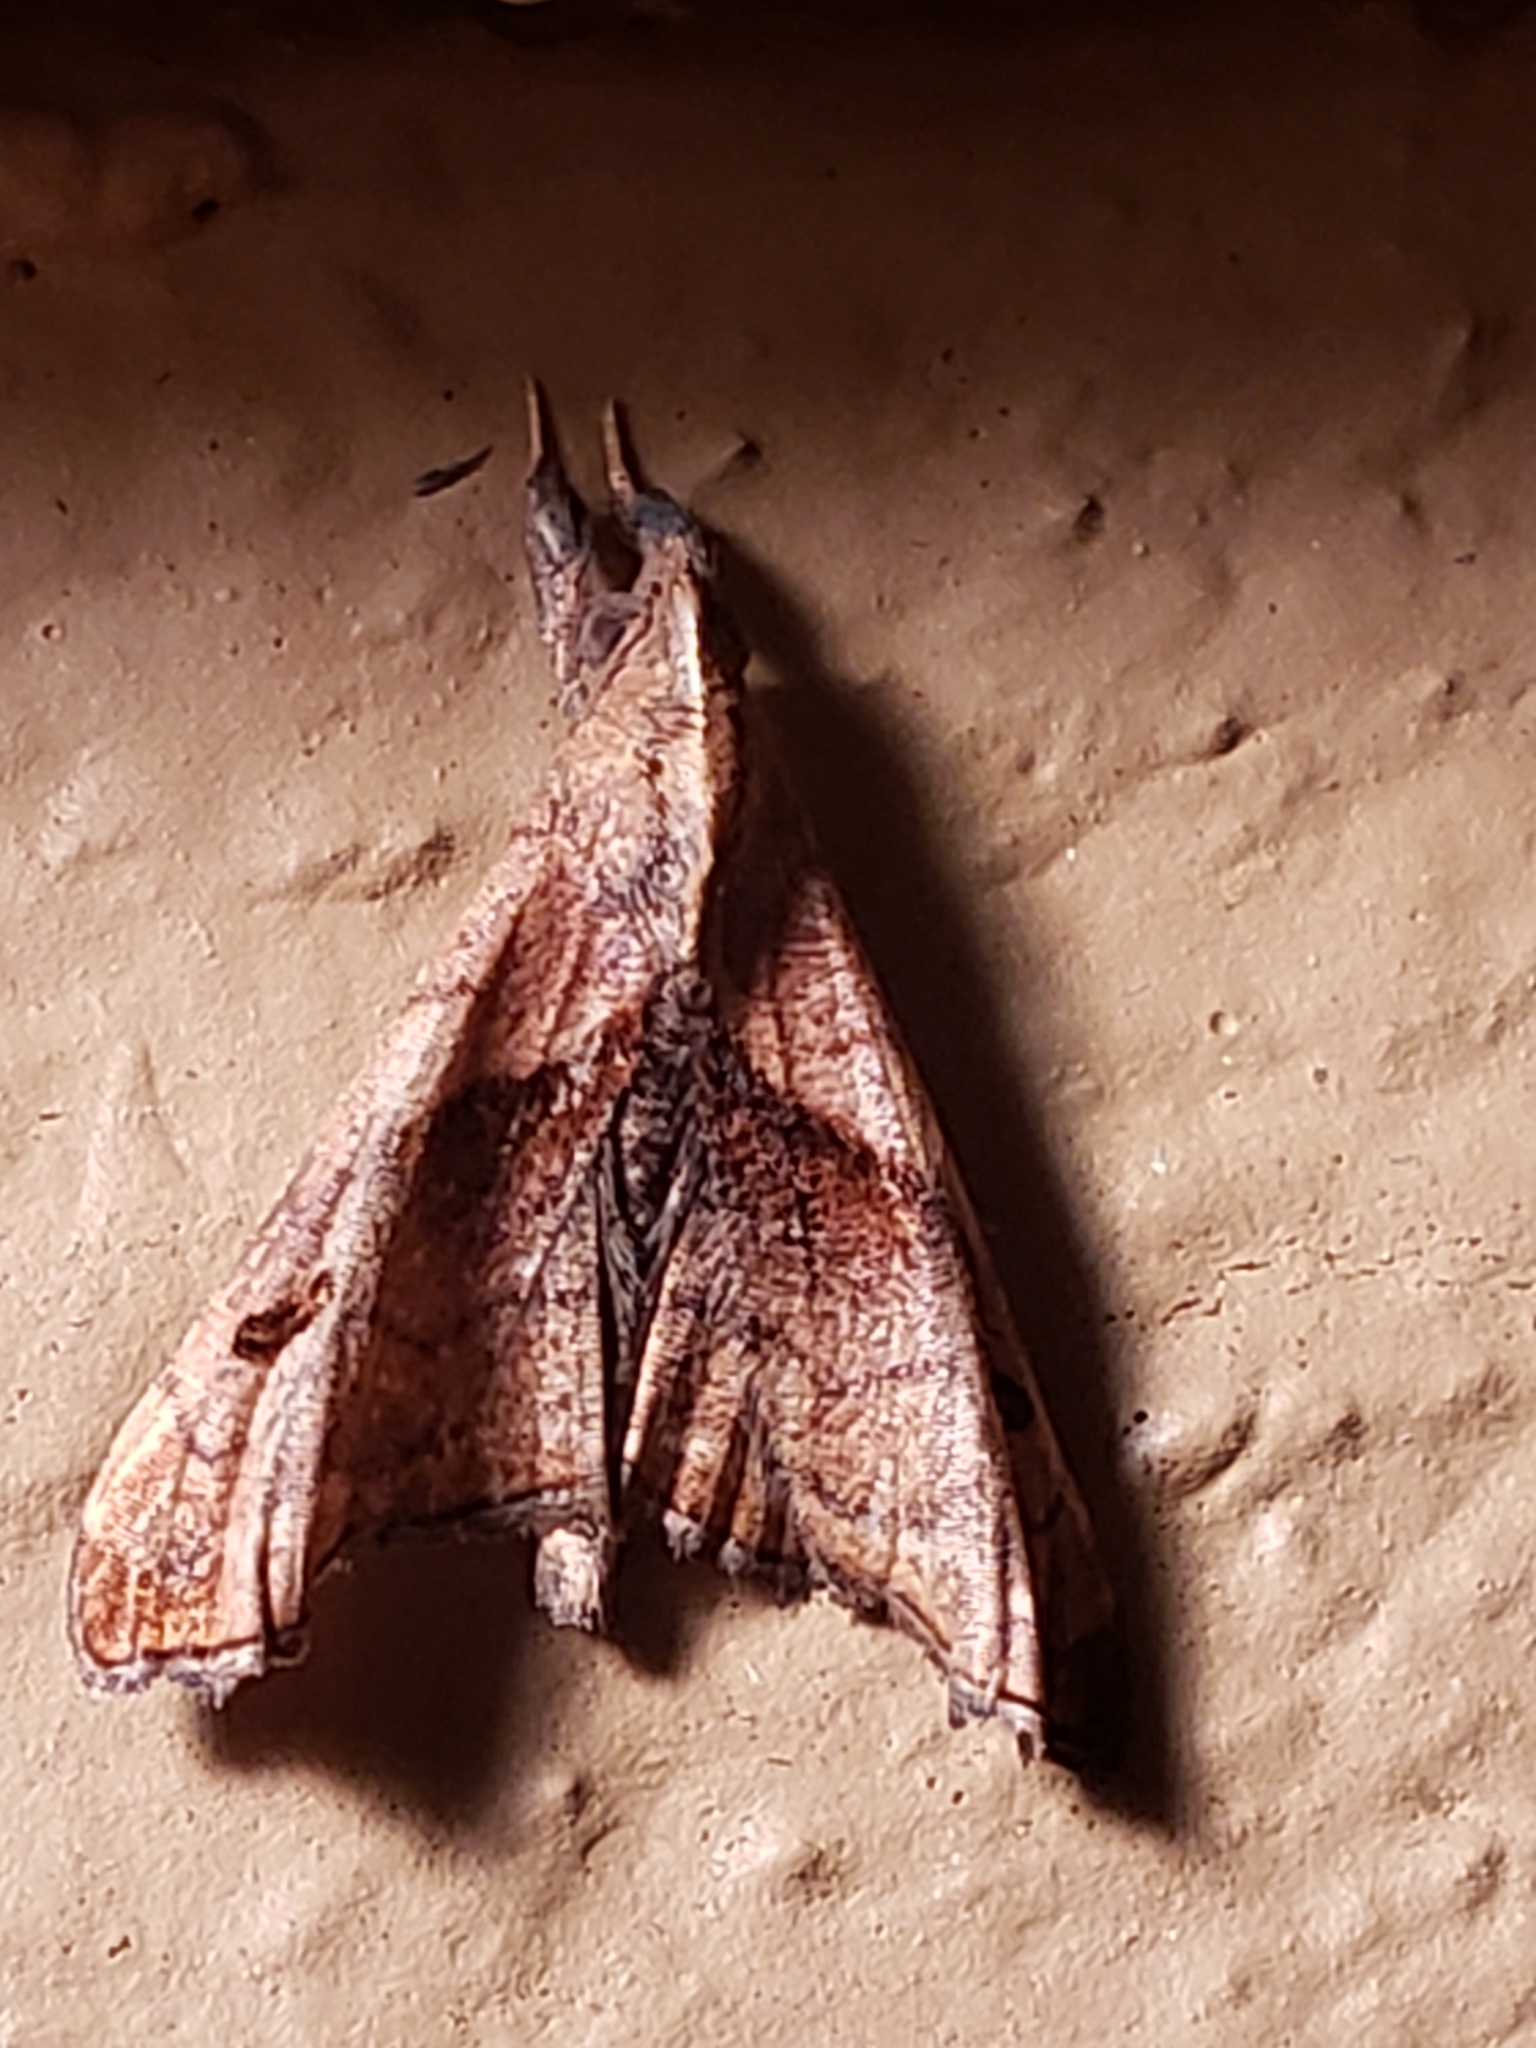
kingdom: Animalia
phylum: Arthropoda
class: Insecta
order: Lepidoptera
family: Erebidae
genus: Palthis
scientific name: Palthis angulalis
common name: Dark-spotted palthis moth
